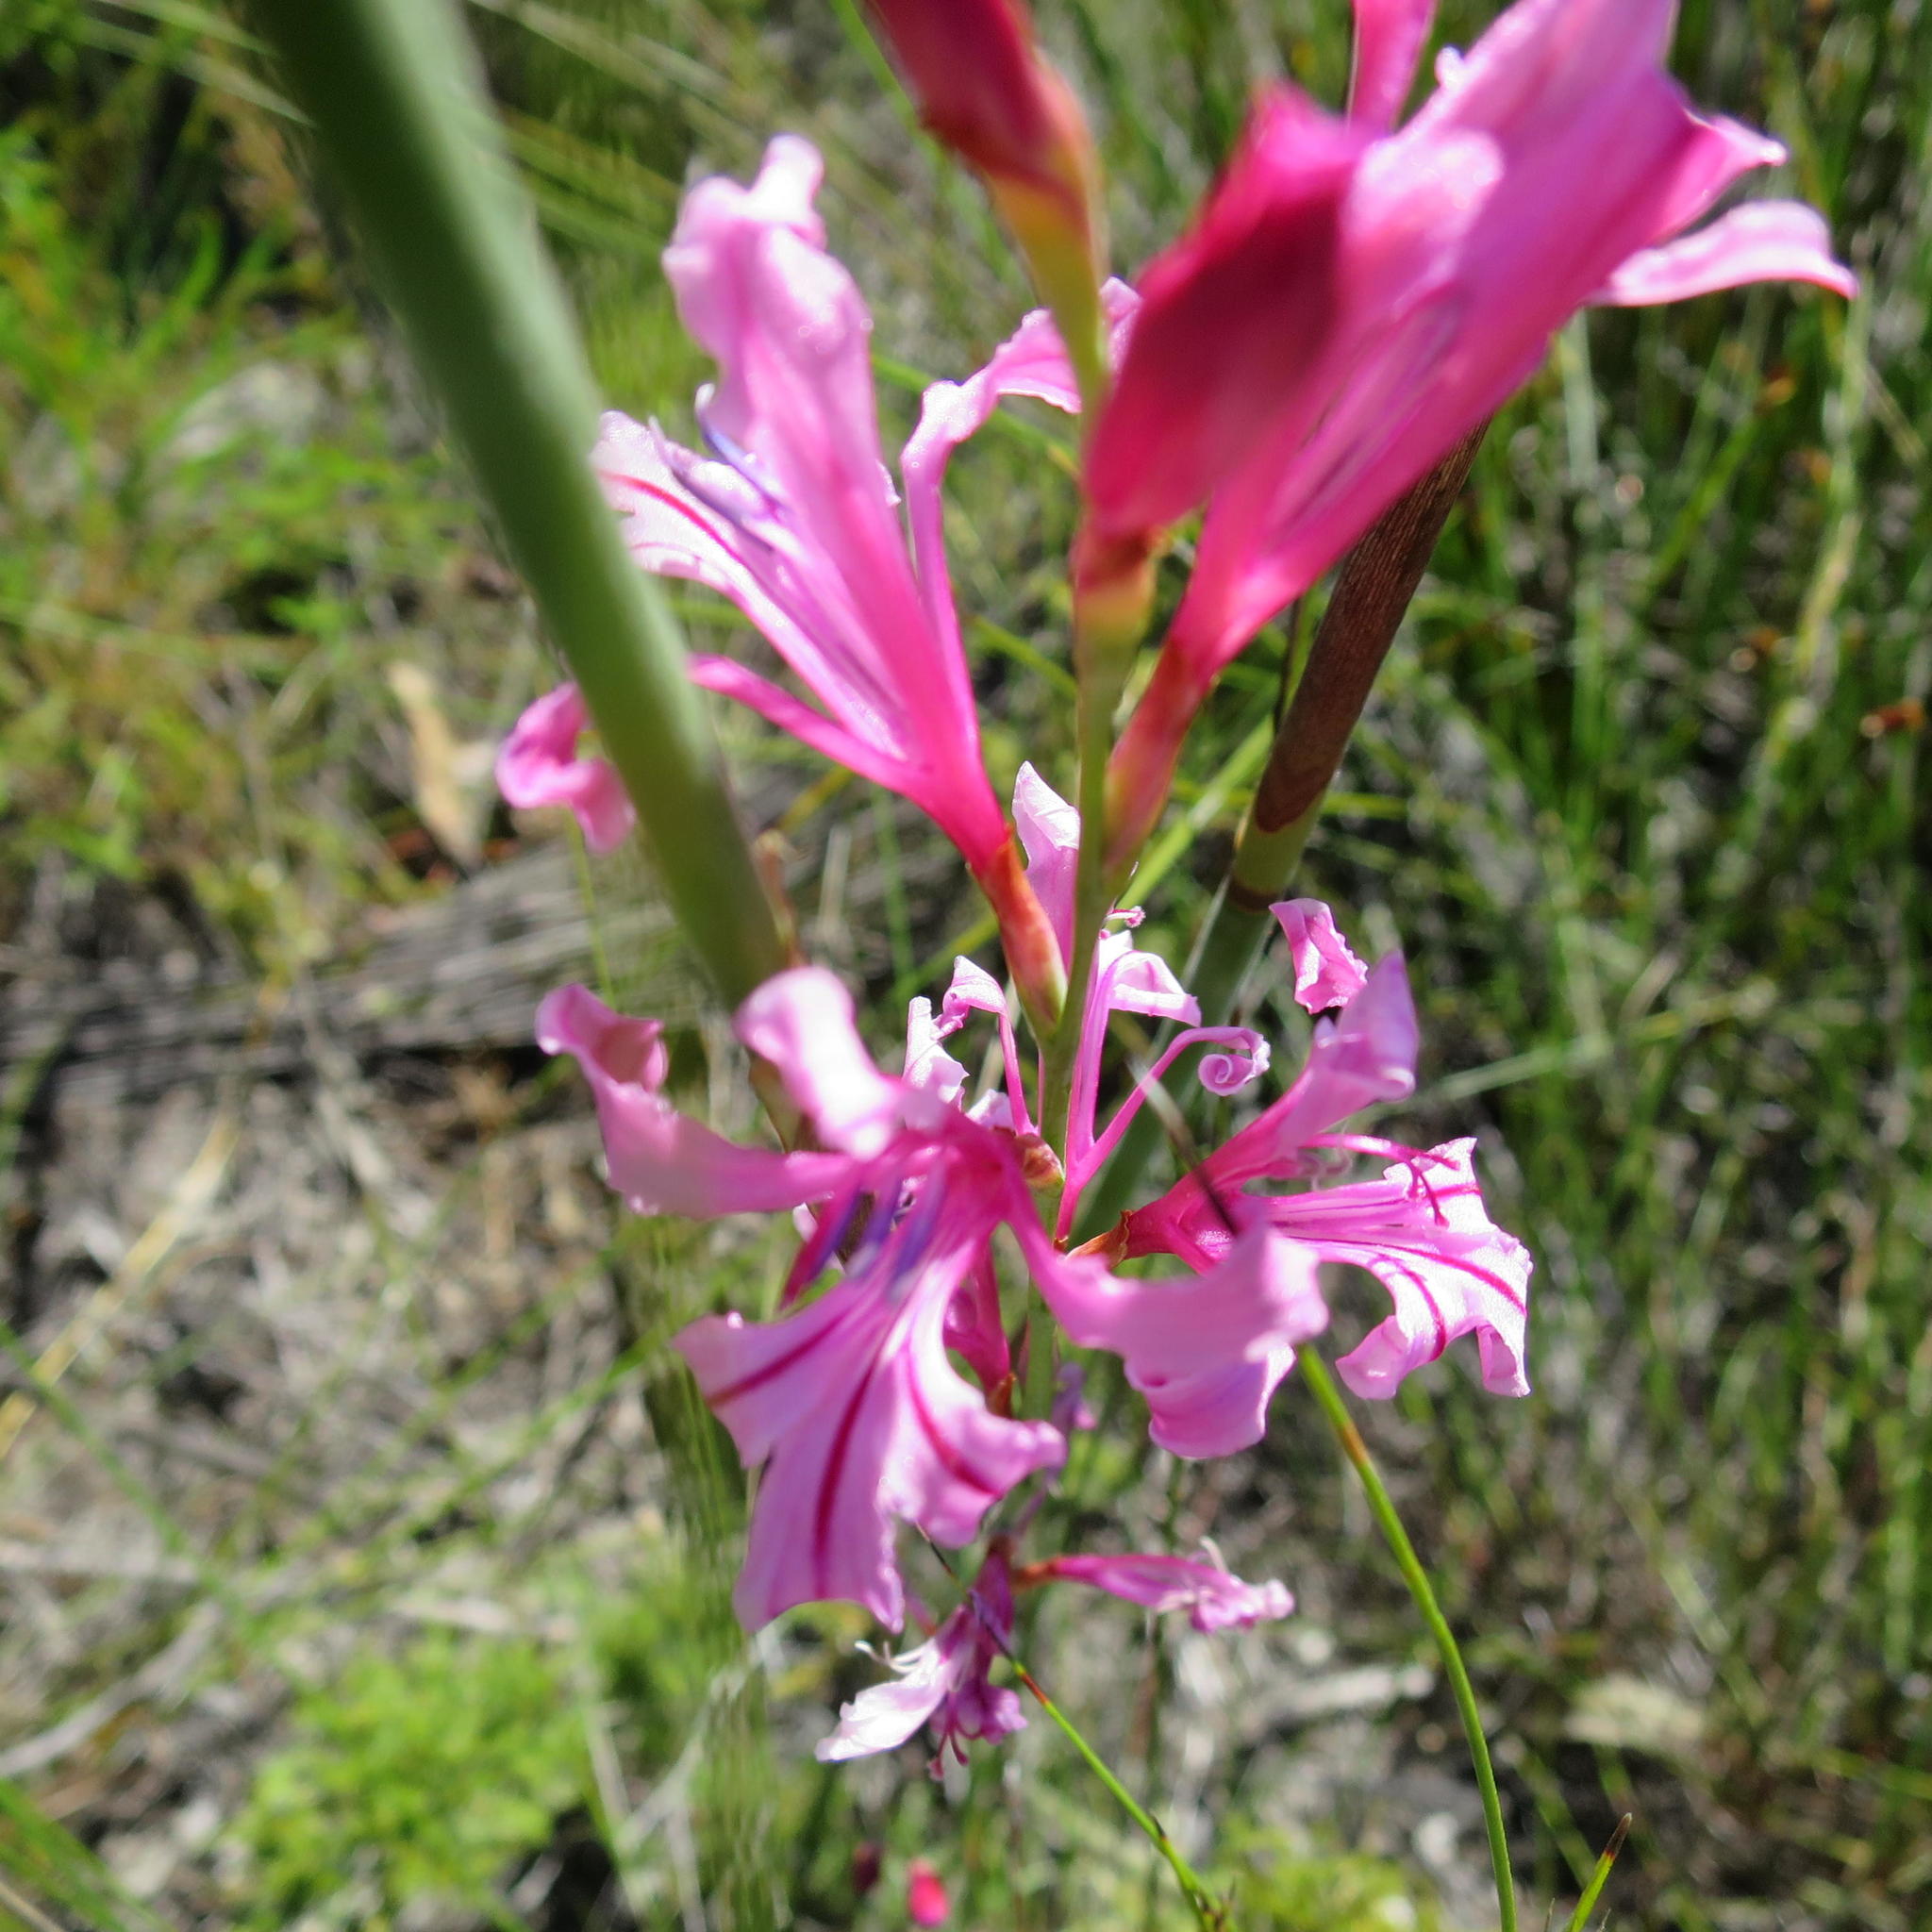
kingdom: Plantae
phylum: Tracheophyta
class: Liliopsida
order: Asparagales
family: Iridaceae
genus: Tritoniopsis
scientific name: Tritoniopsis ramosa
